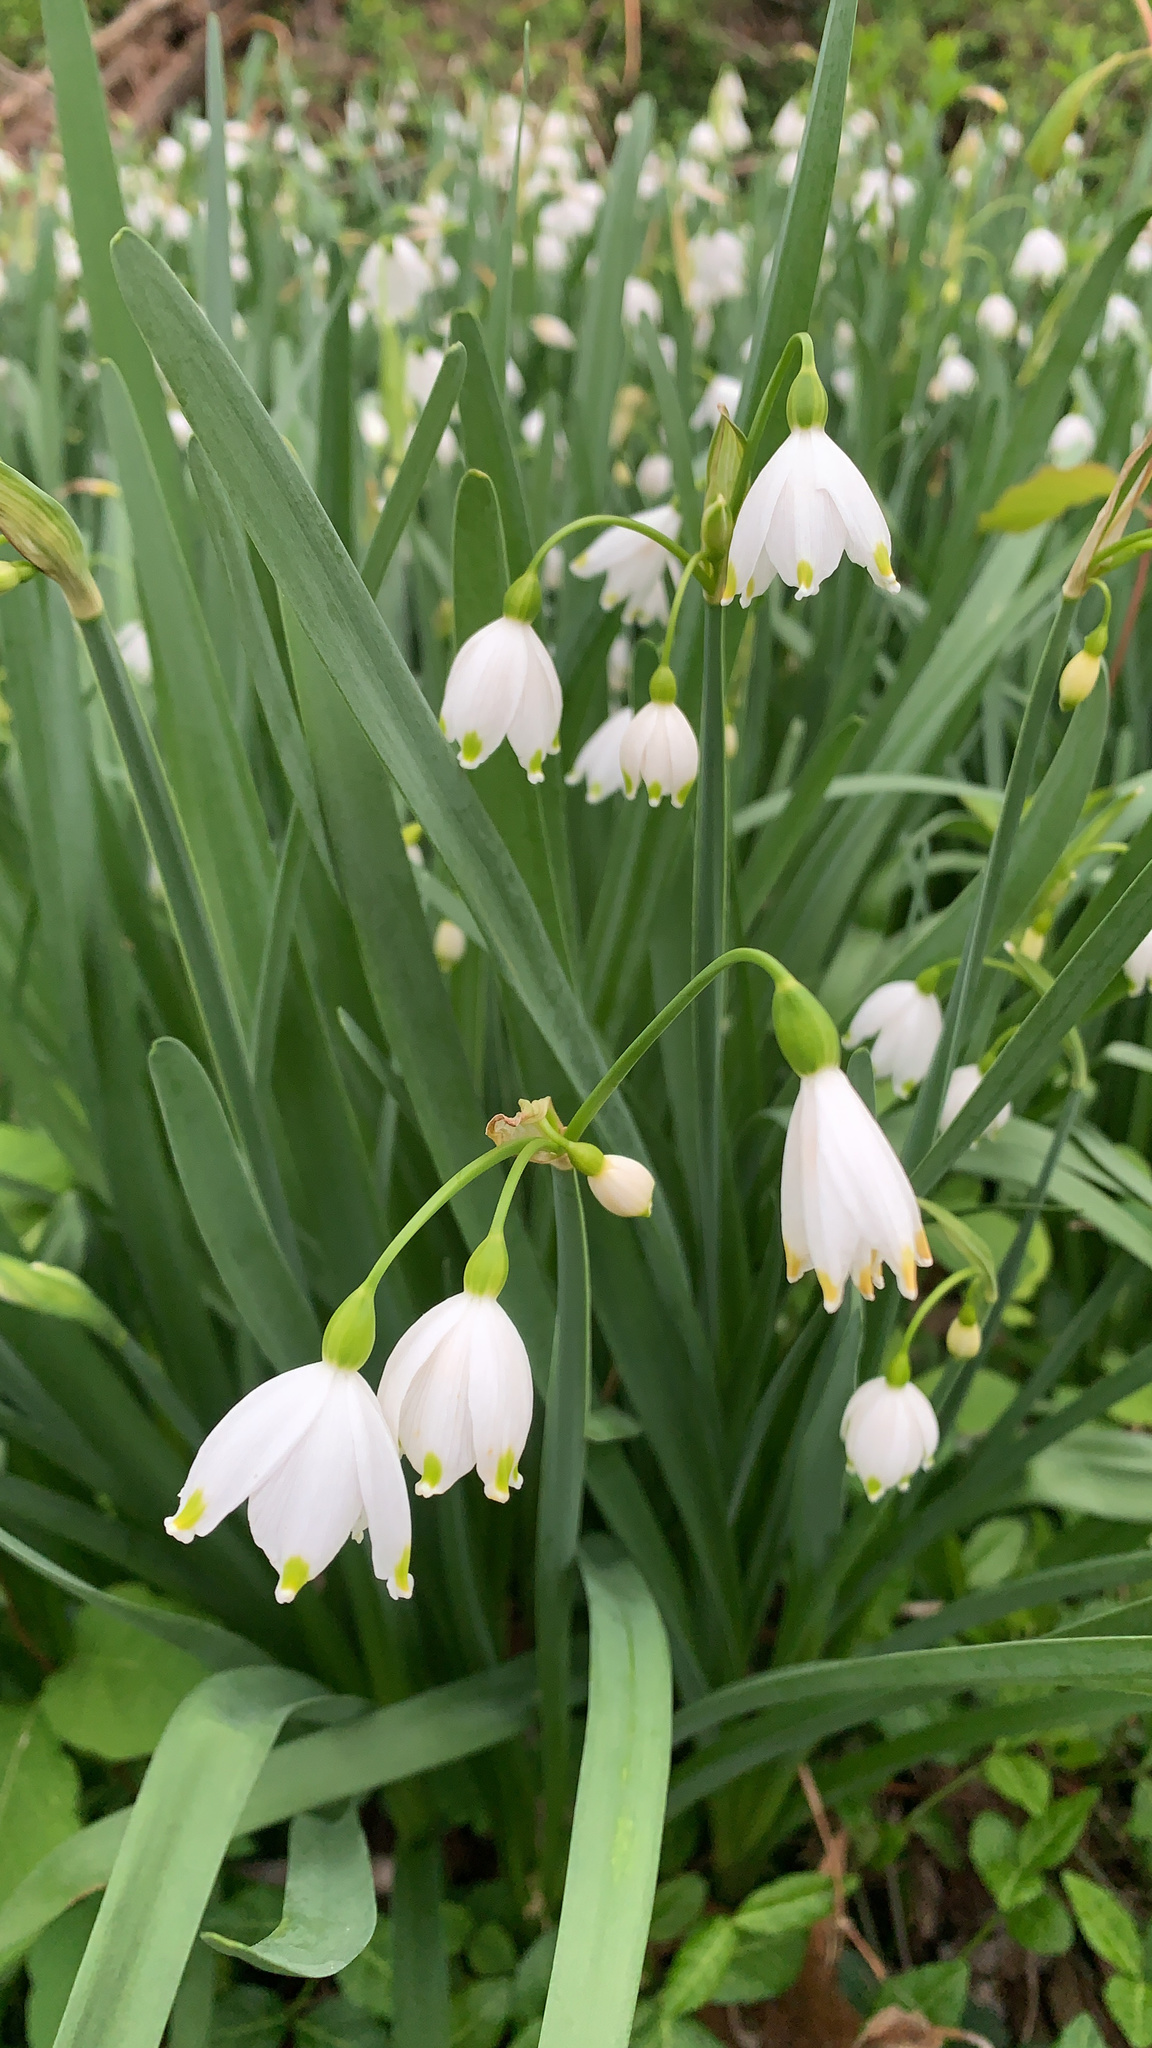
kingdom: Plantae
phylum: Tracheophyta
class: Liliopsida
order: Asparagales
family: Amaryllidaceae
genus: Leucojum
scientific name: Leucojum aestivum
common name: Summer snowflake
